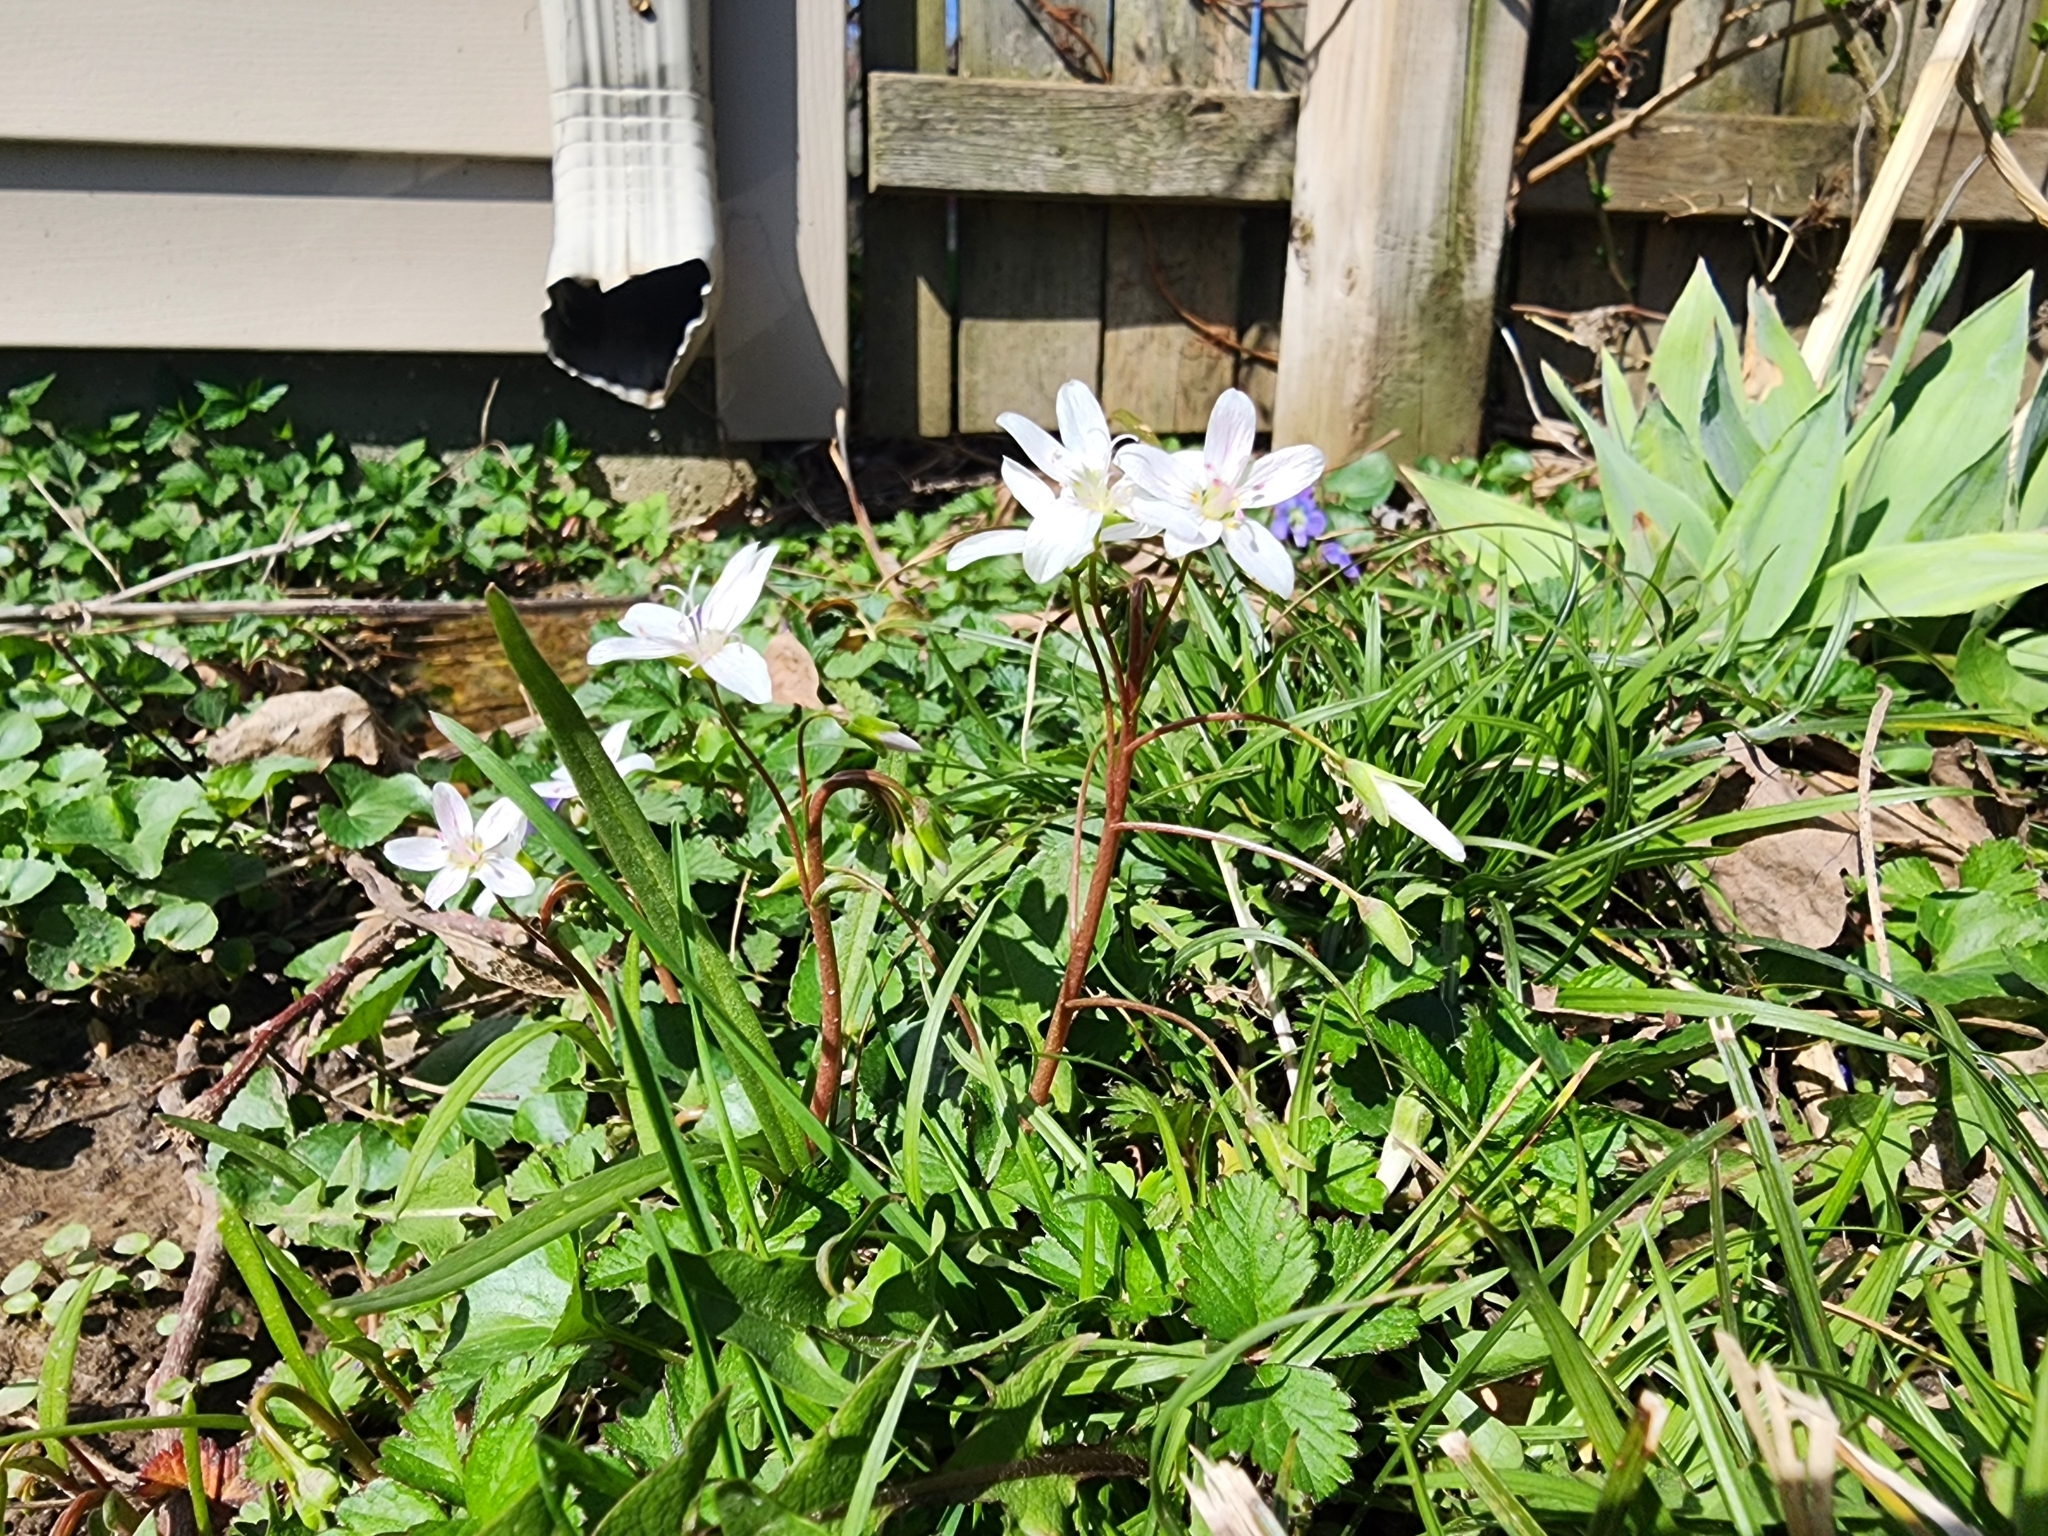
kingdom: Plantae
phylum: Tracheophyta
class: Magnoliopsida
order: Caryophyllales
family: Montiaceae
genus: Claytonia
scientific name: Claytonia virginica
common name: Virginia springbeauty
